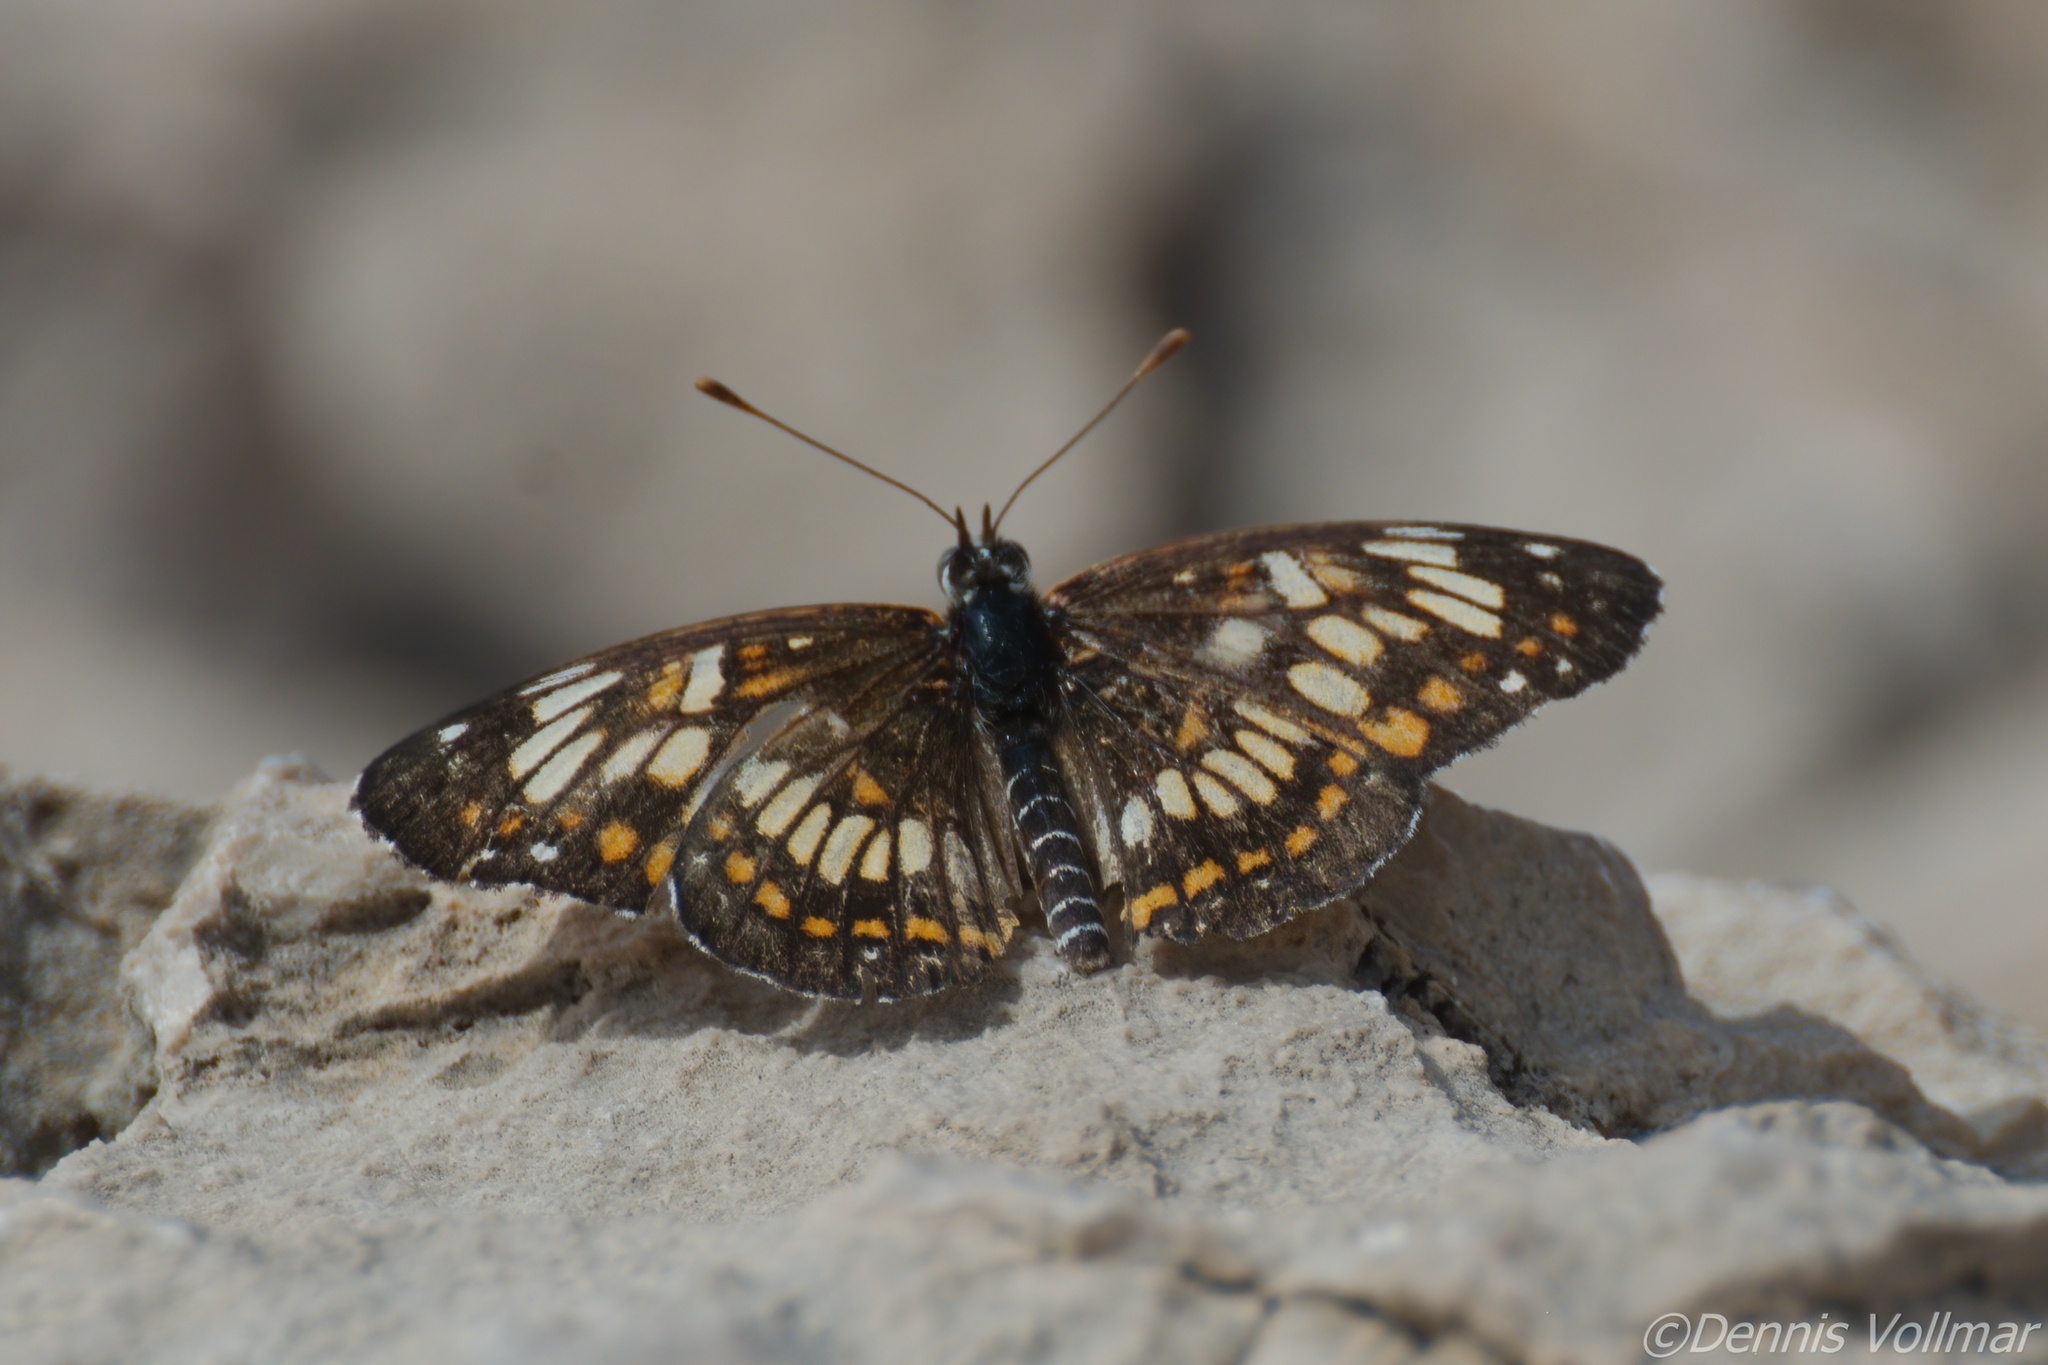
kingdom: Animalia
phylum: Arthropoda
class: Insecta
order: Lepidoptera
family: Nymphalidae
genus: Thessalia
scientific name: Thessalia theona
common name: Nymphalid moth
